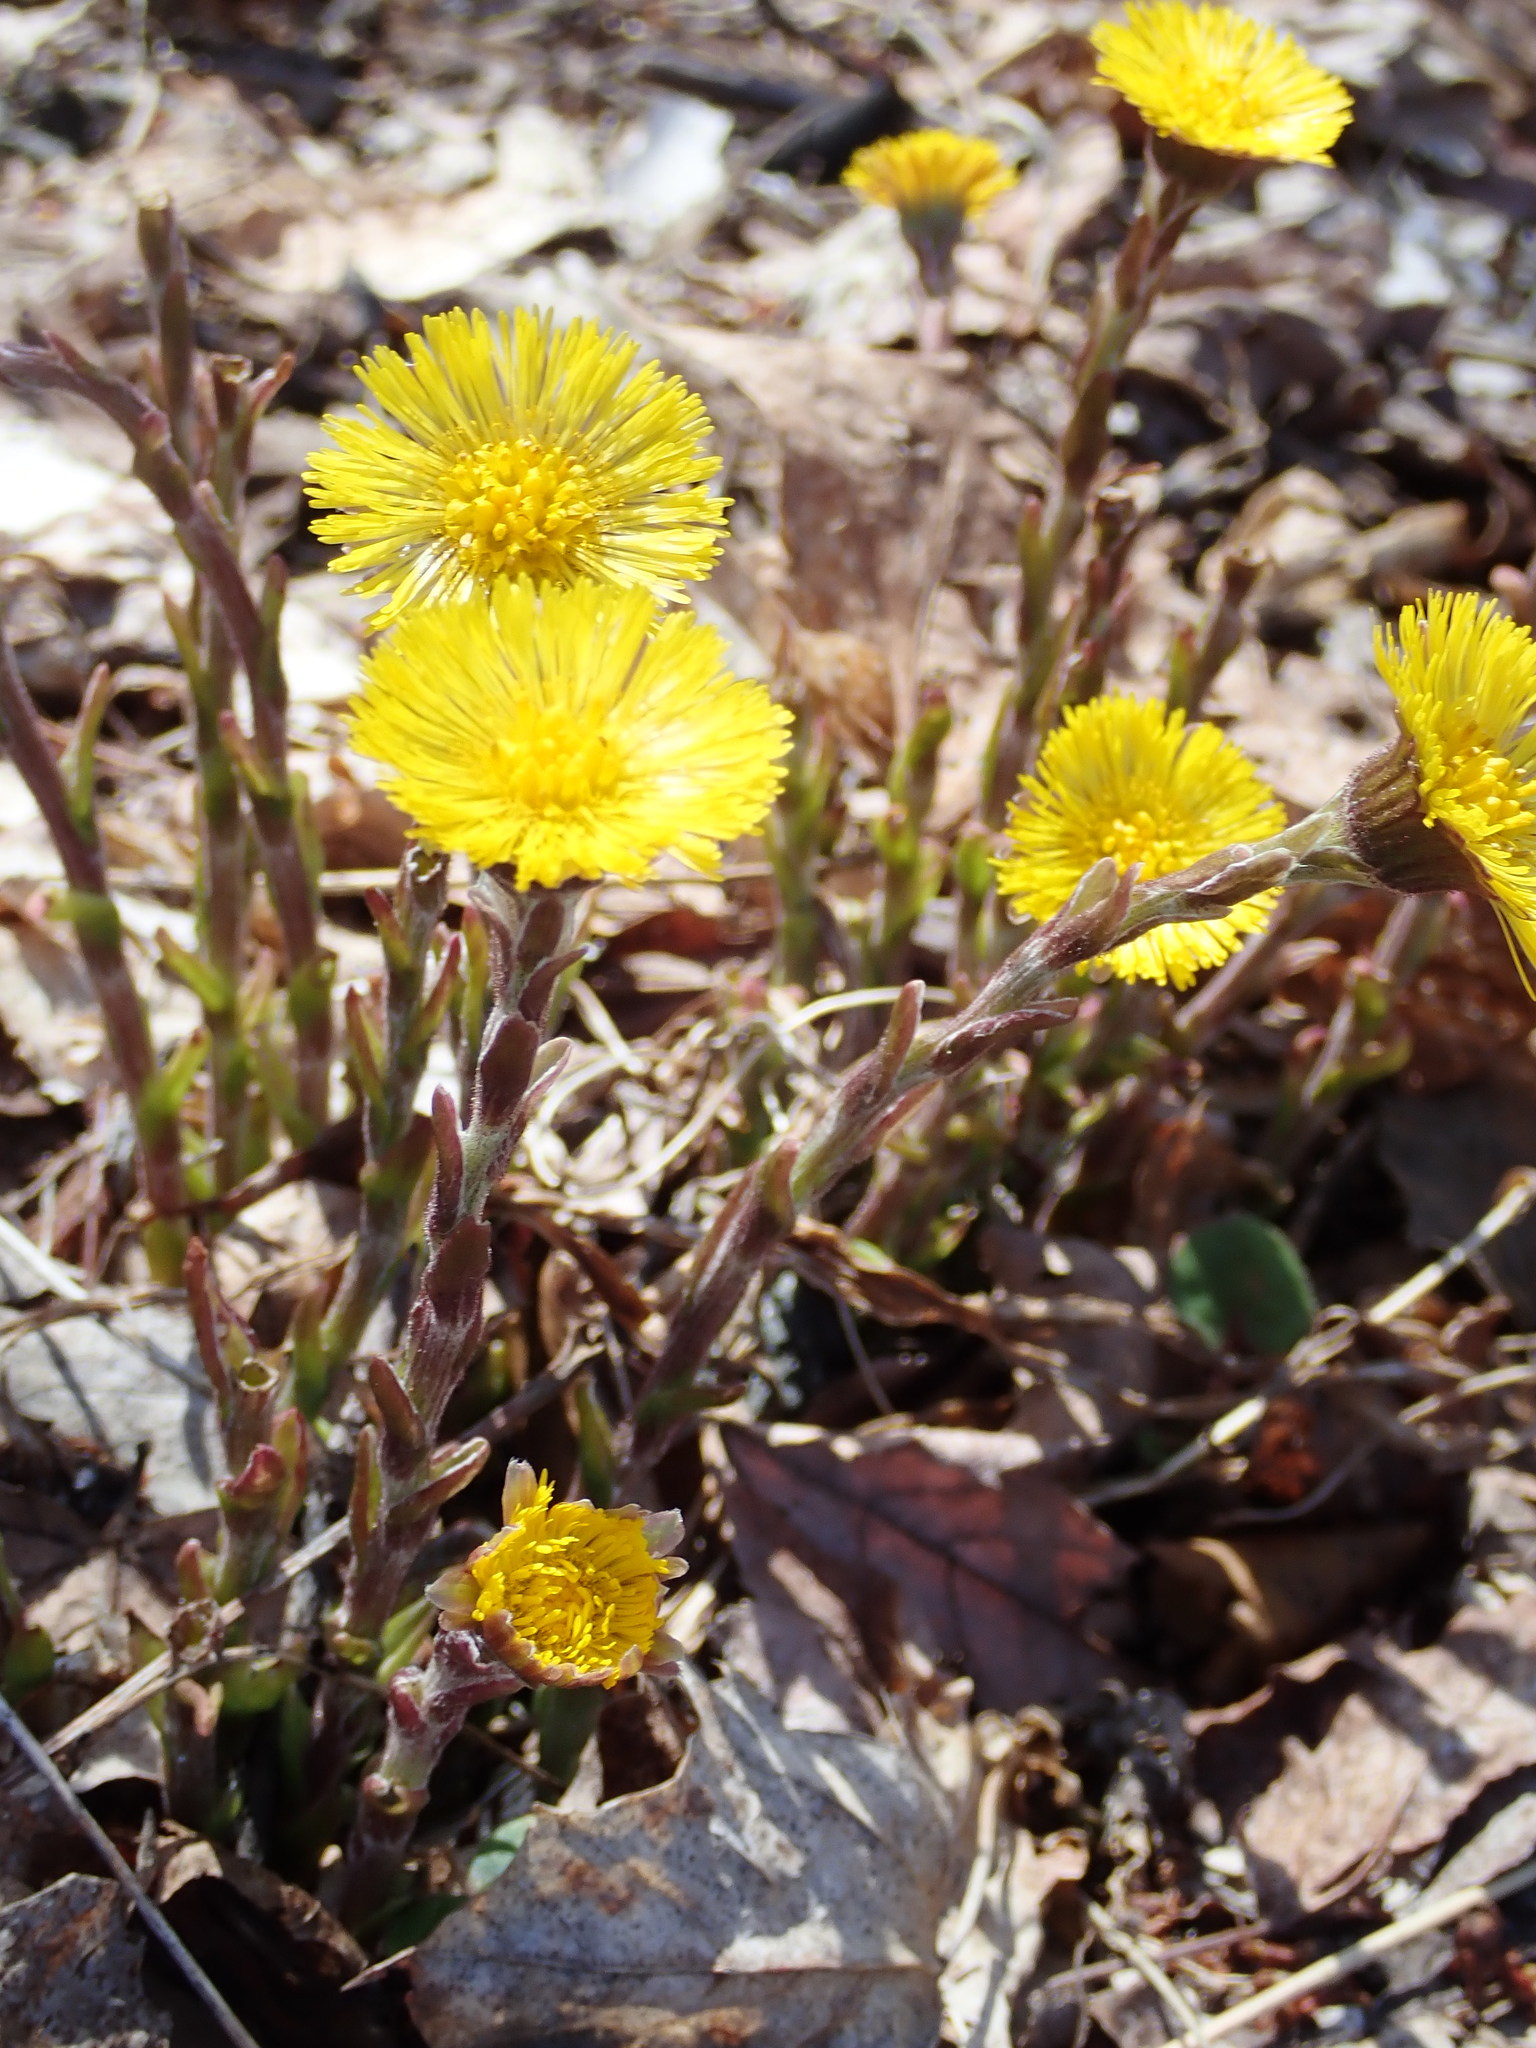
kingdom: Plantae
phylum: Tracheophyta
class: Magnoliopsida
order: Asterales
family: Asteraceae
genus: Tussilago
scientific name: Tussilago farfara
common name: Coltsfoot
